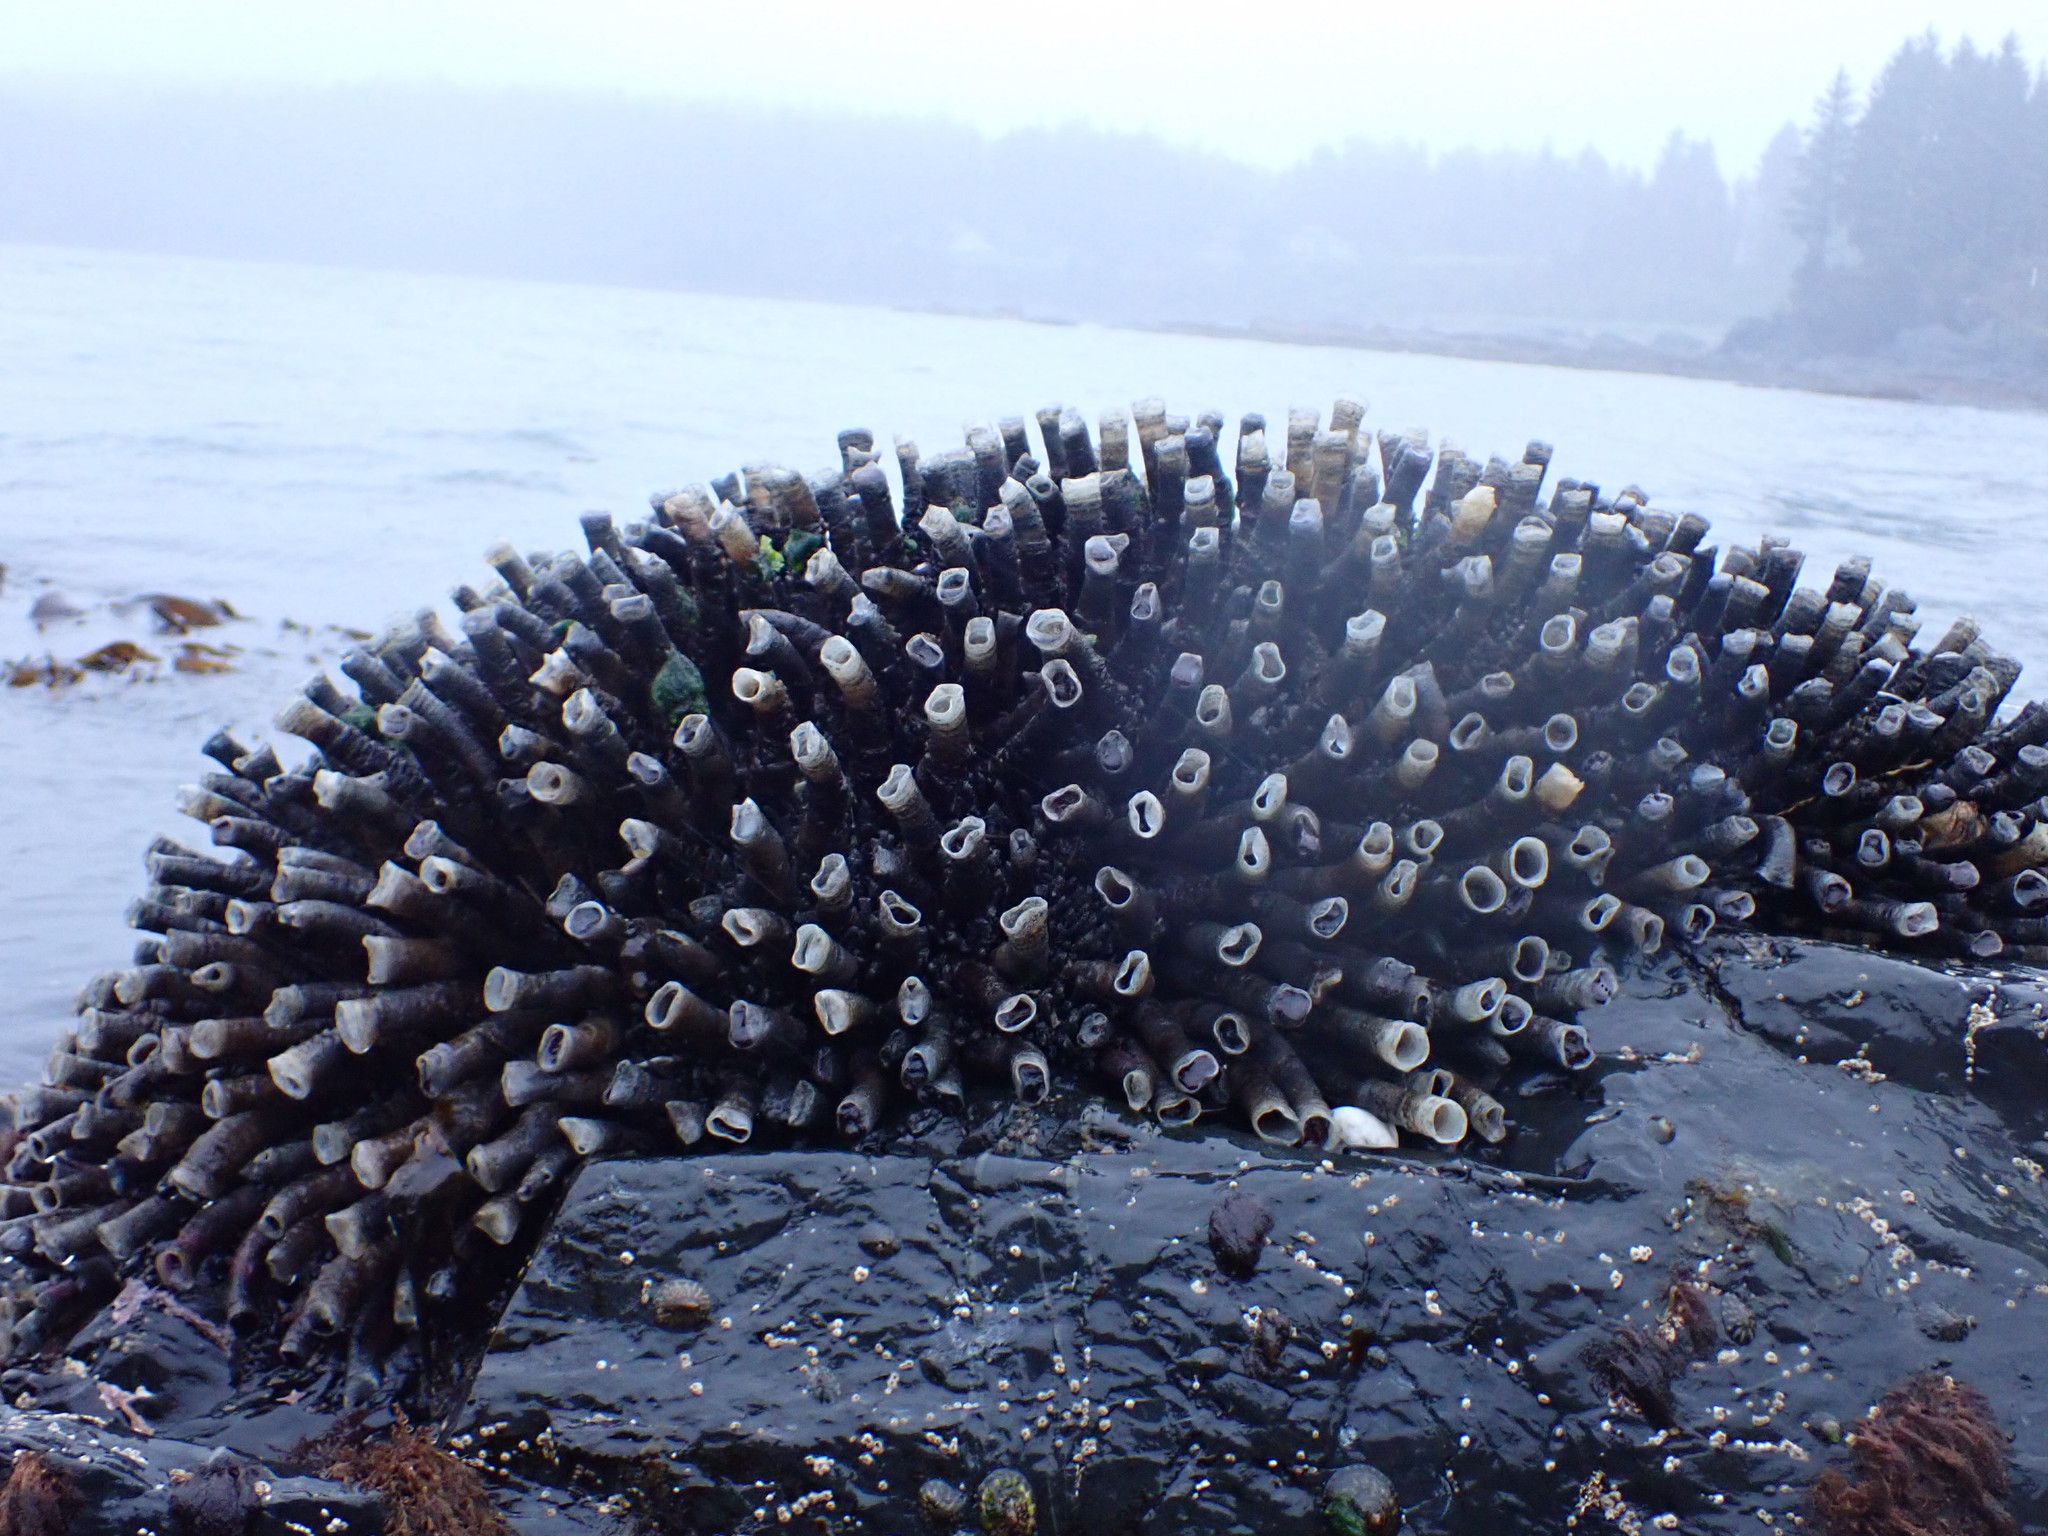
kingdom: Animalia
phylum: Annelida
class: Polychaeta
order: Sabellida
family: Sabellidae
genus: Eudistylia
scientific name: Eudistylia vancouveri
